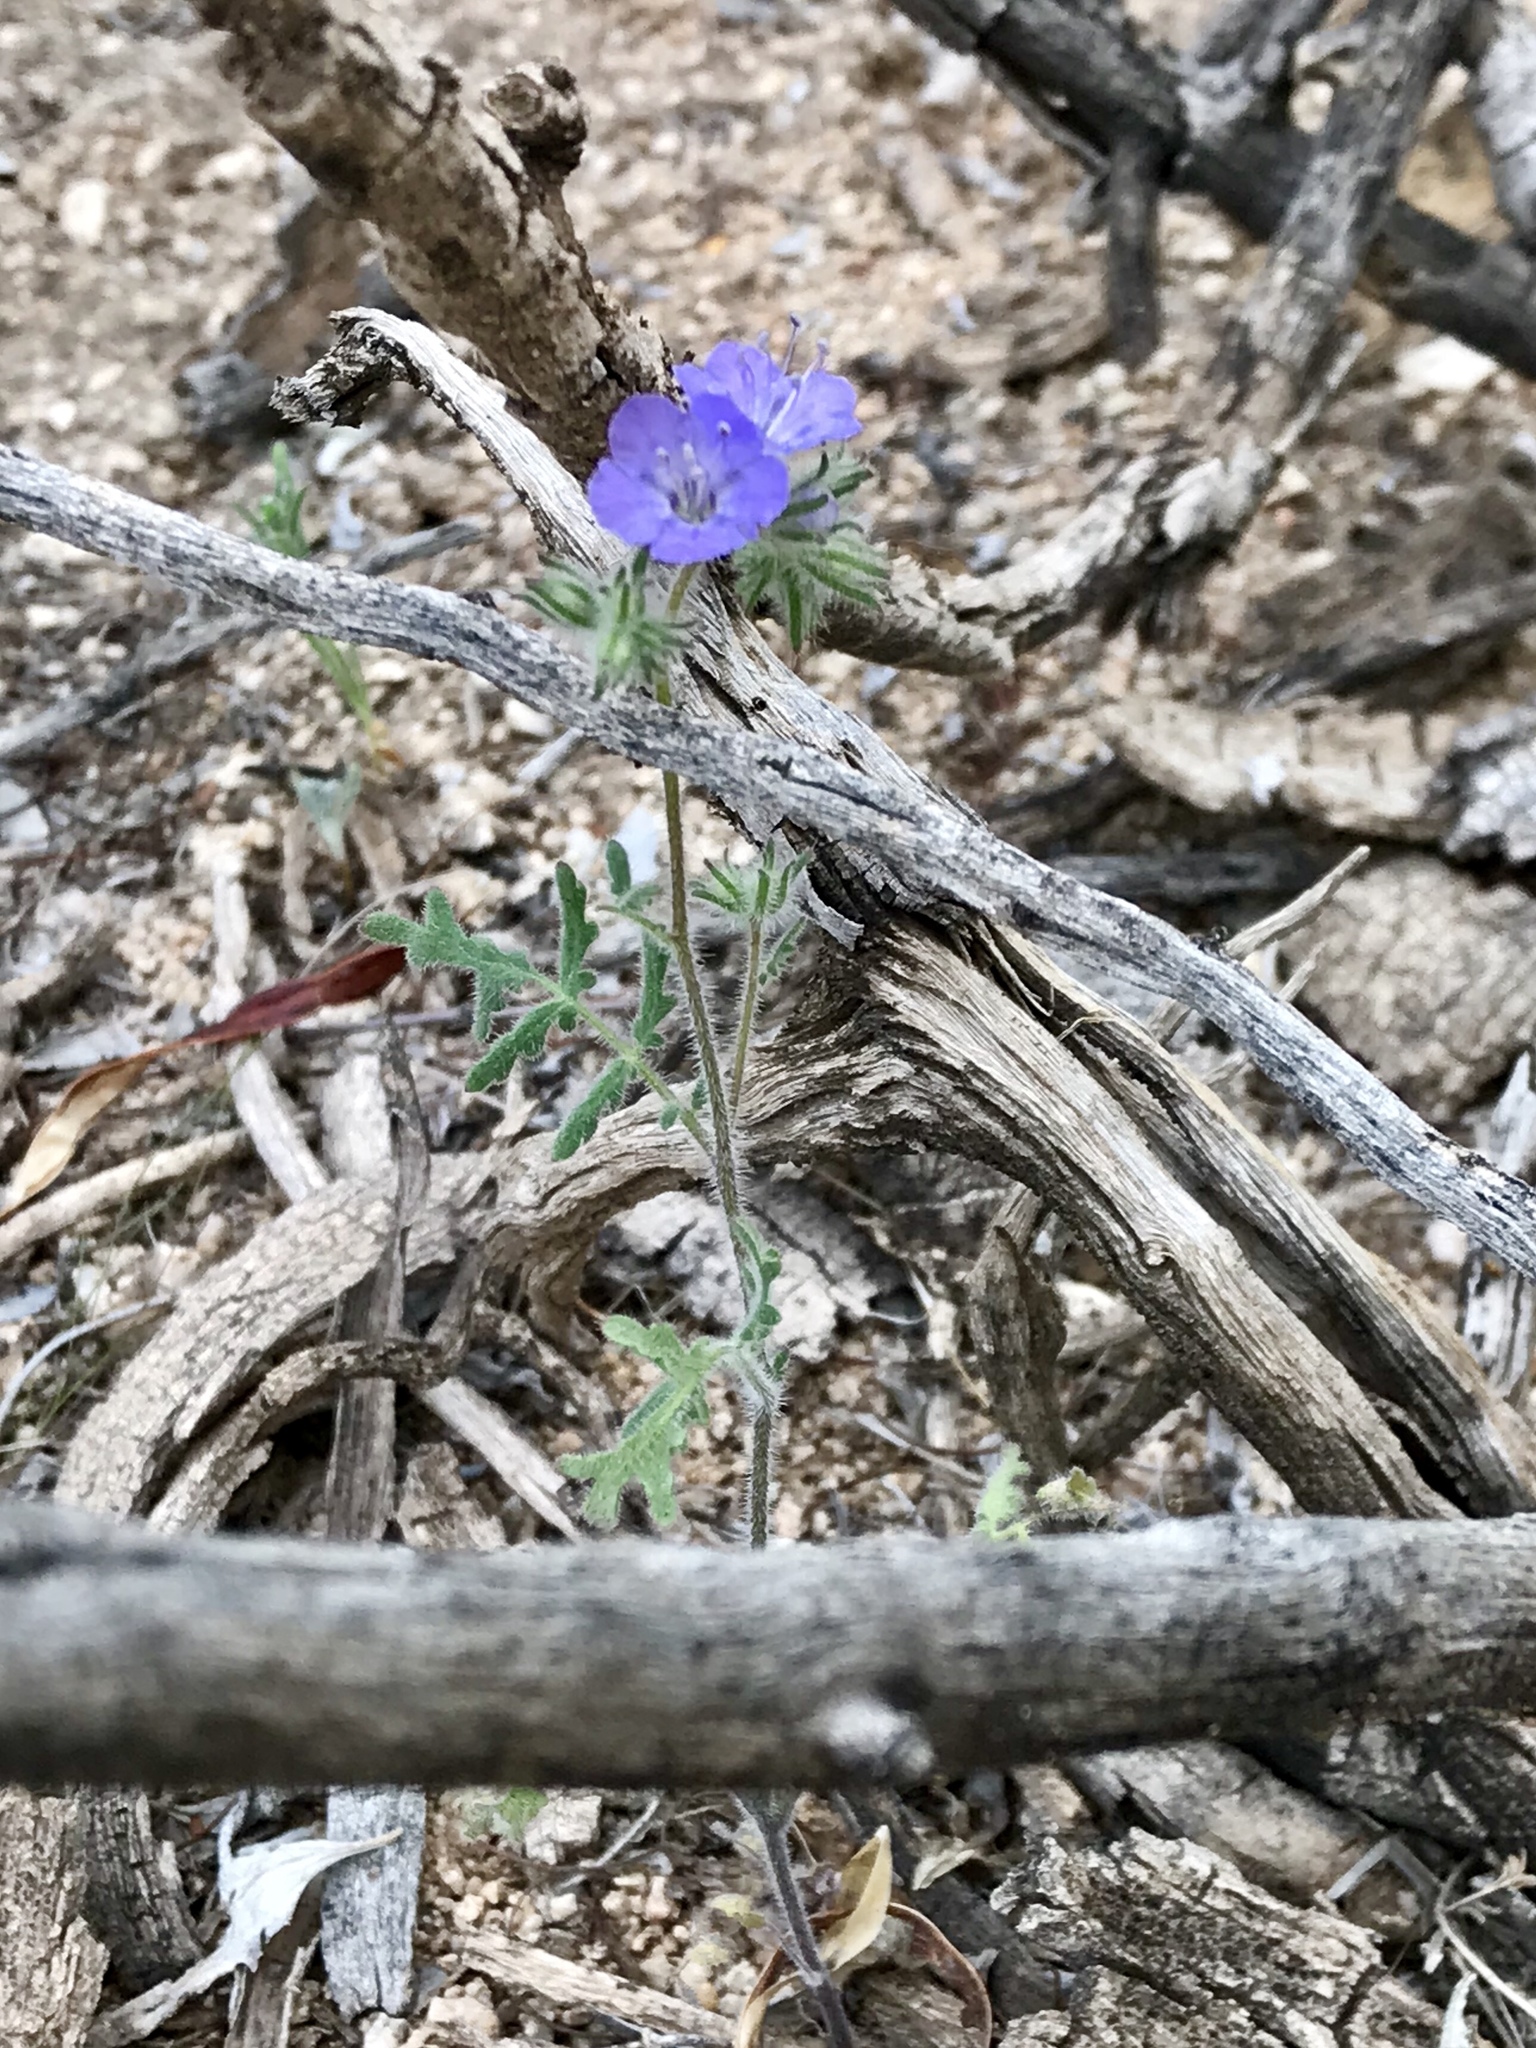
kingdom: Plantae
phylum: Tracheophyta
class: Magnoliopsida
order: Boraginales
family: Hydrophyllaceae
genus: Phacelia
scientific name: Phacelia distans
